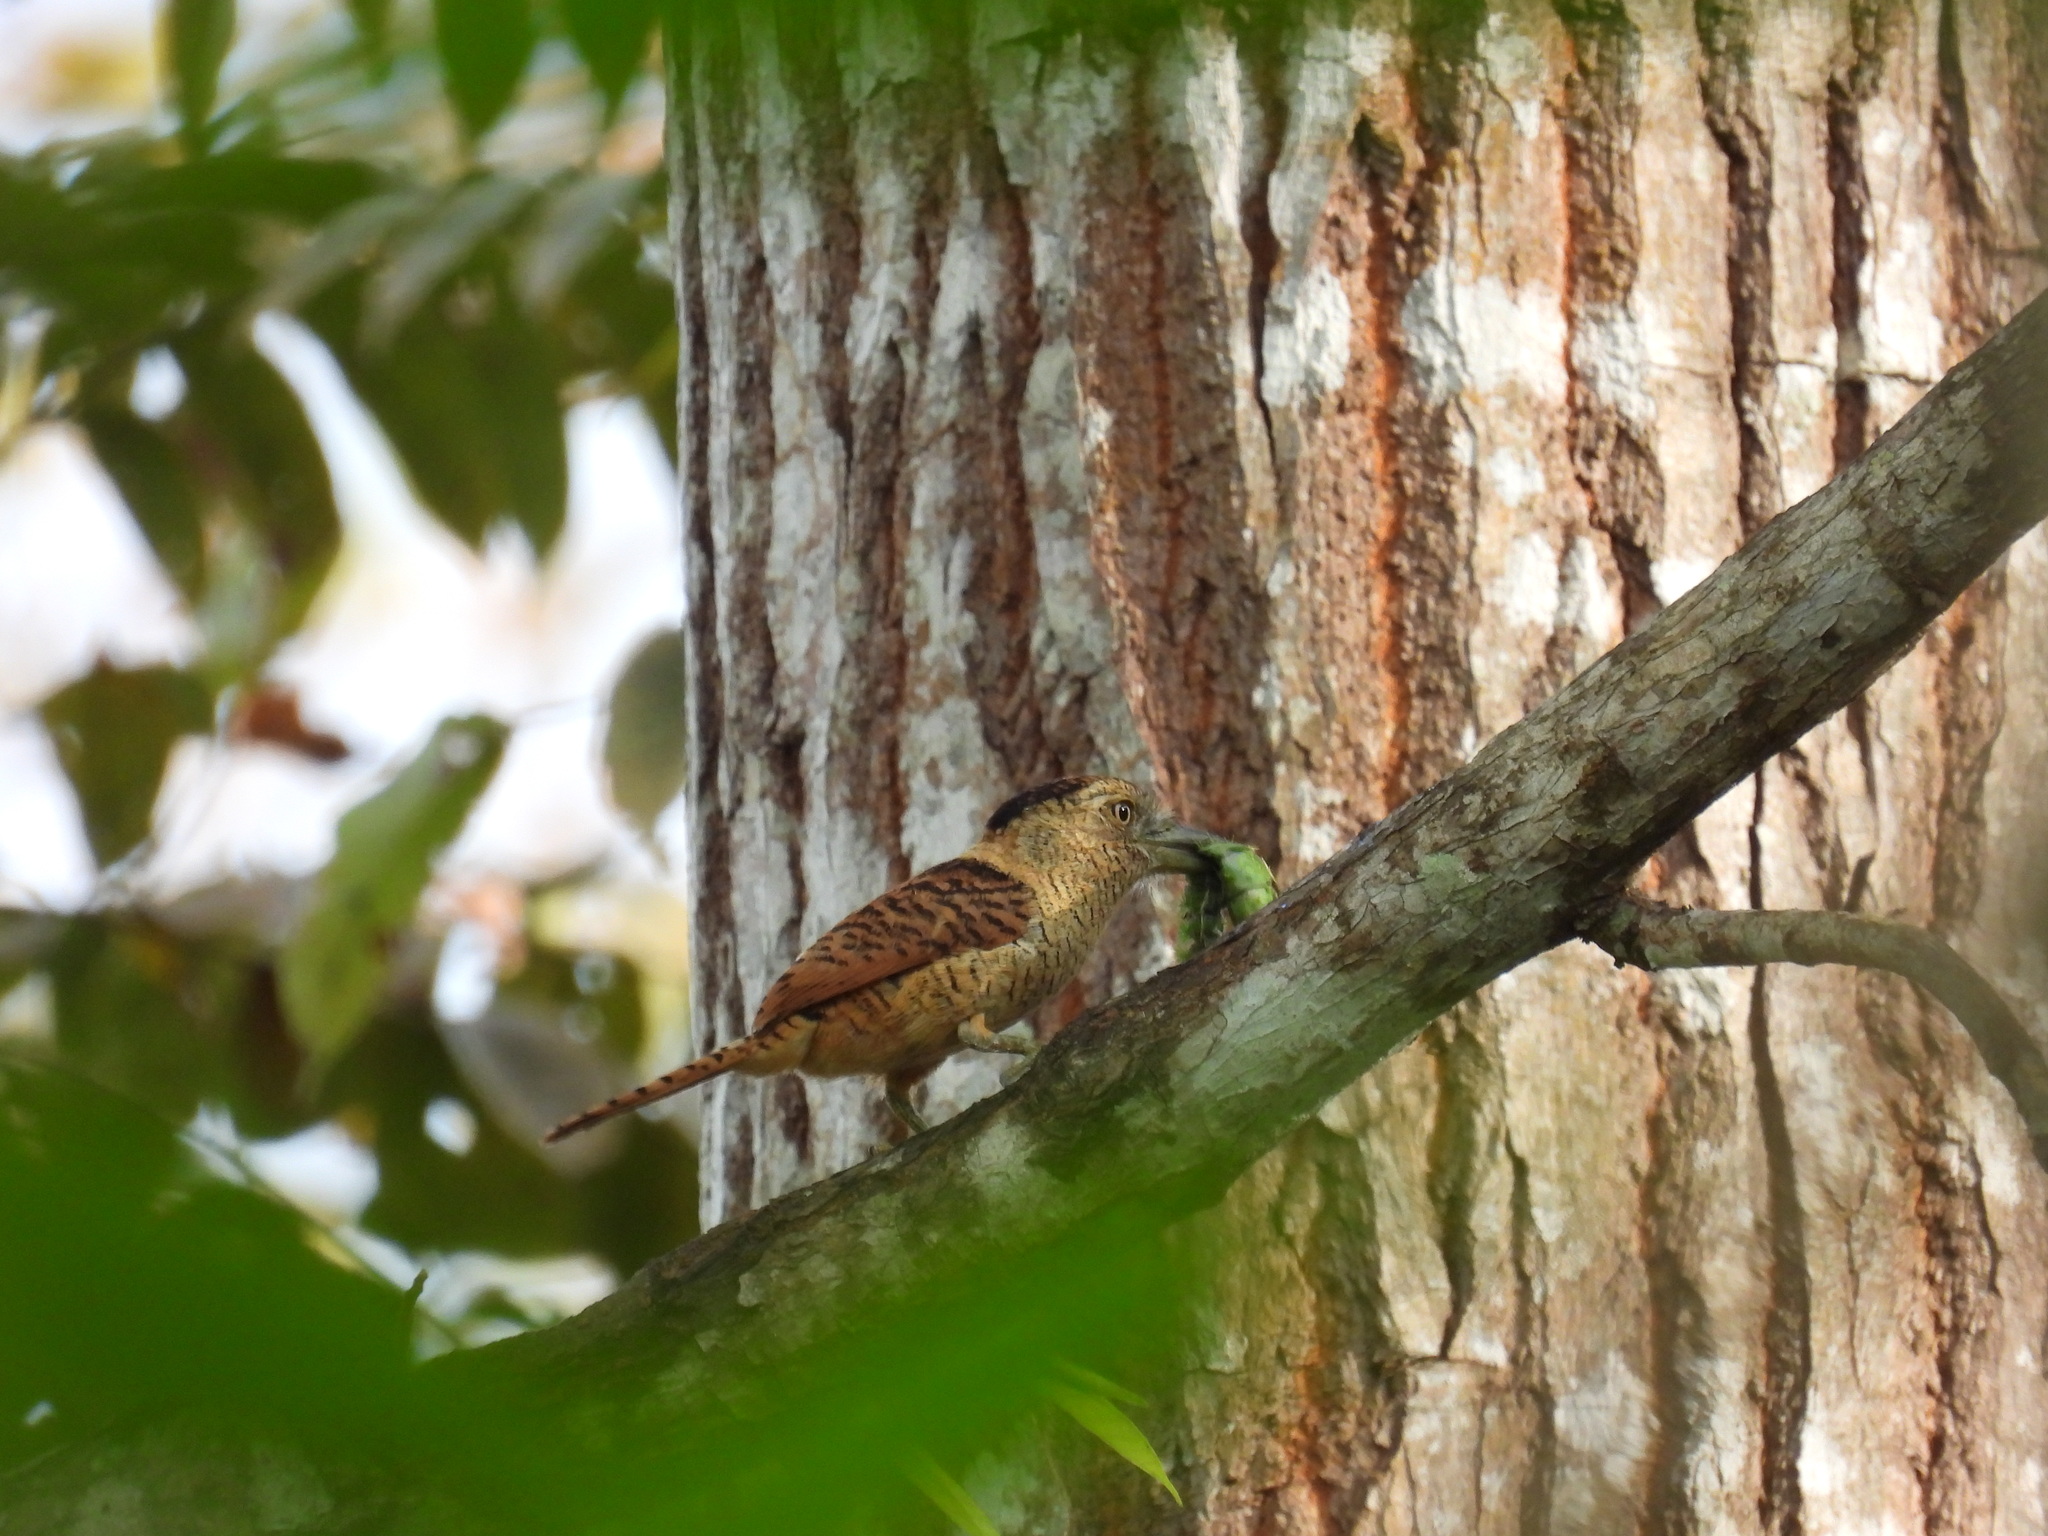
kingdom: Animalia
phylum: Chordata
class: Aves
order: Piciformes
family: Bucconidae
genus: Nystalus
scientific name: Nystalus radiatus
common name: Barred puffbird
